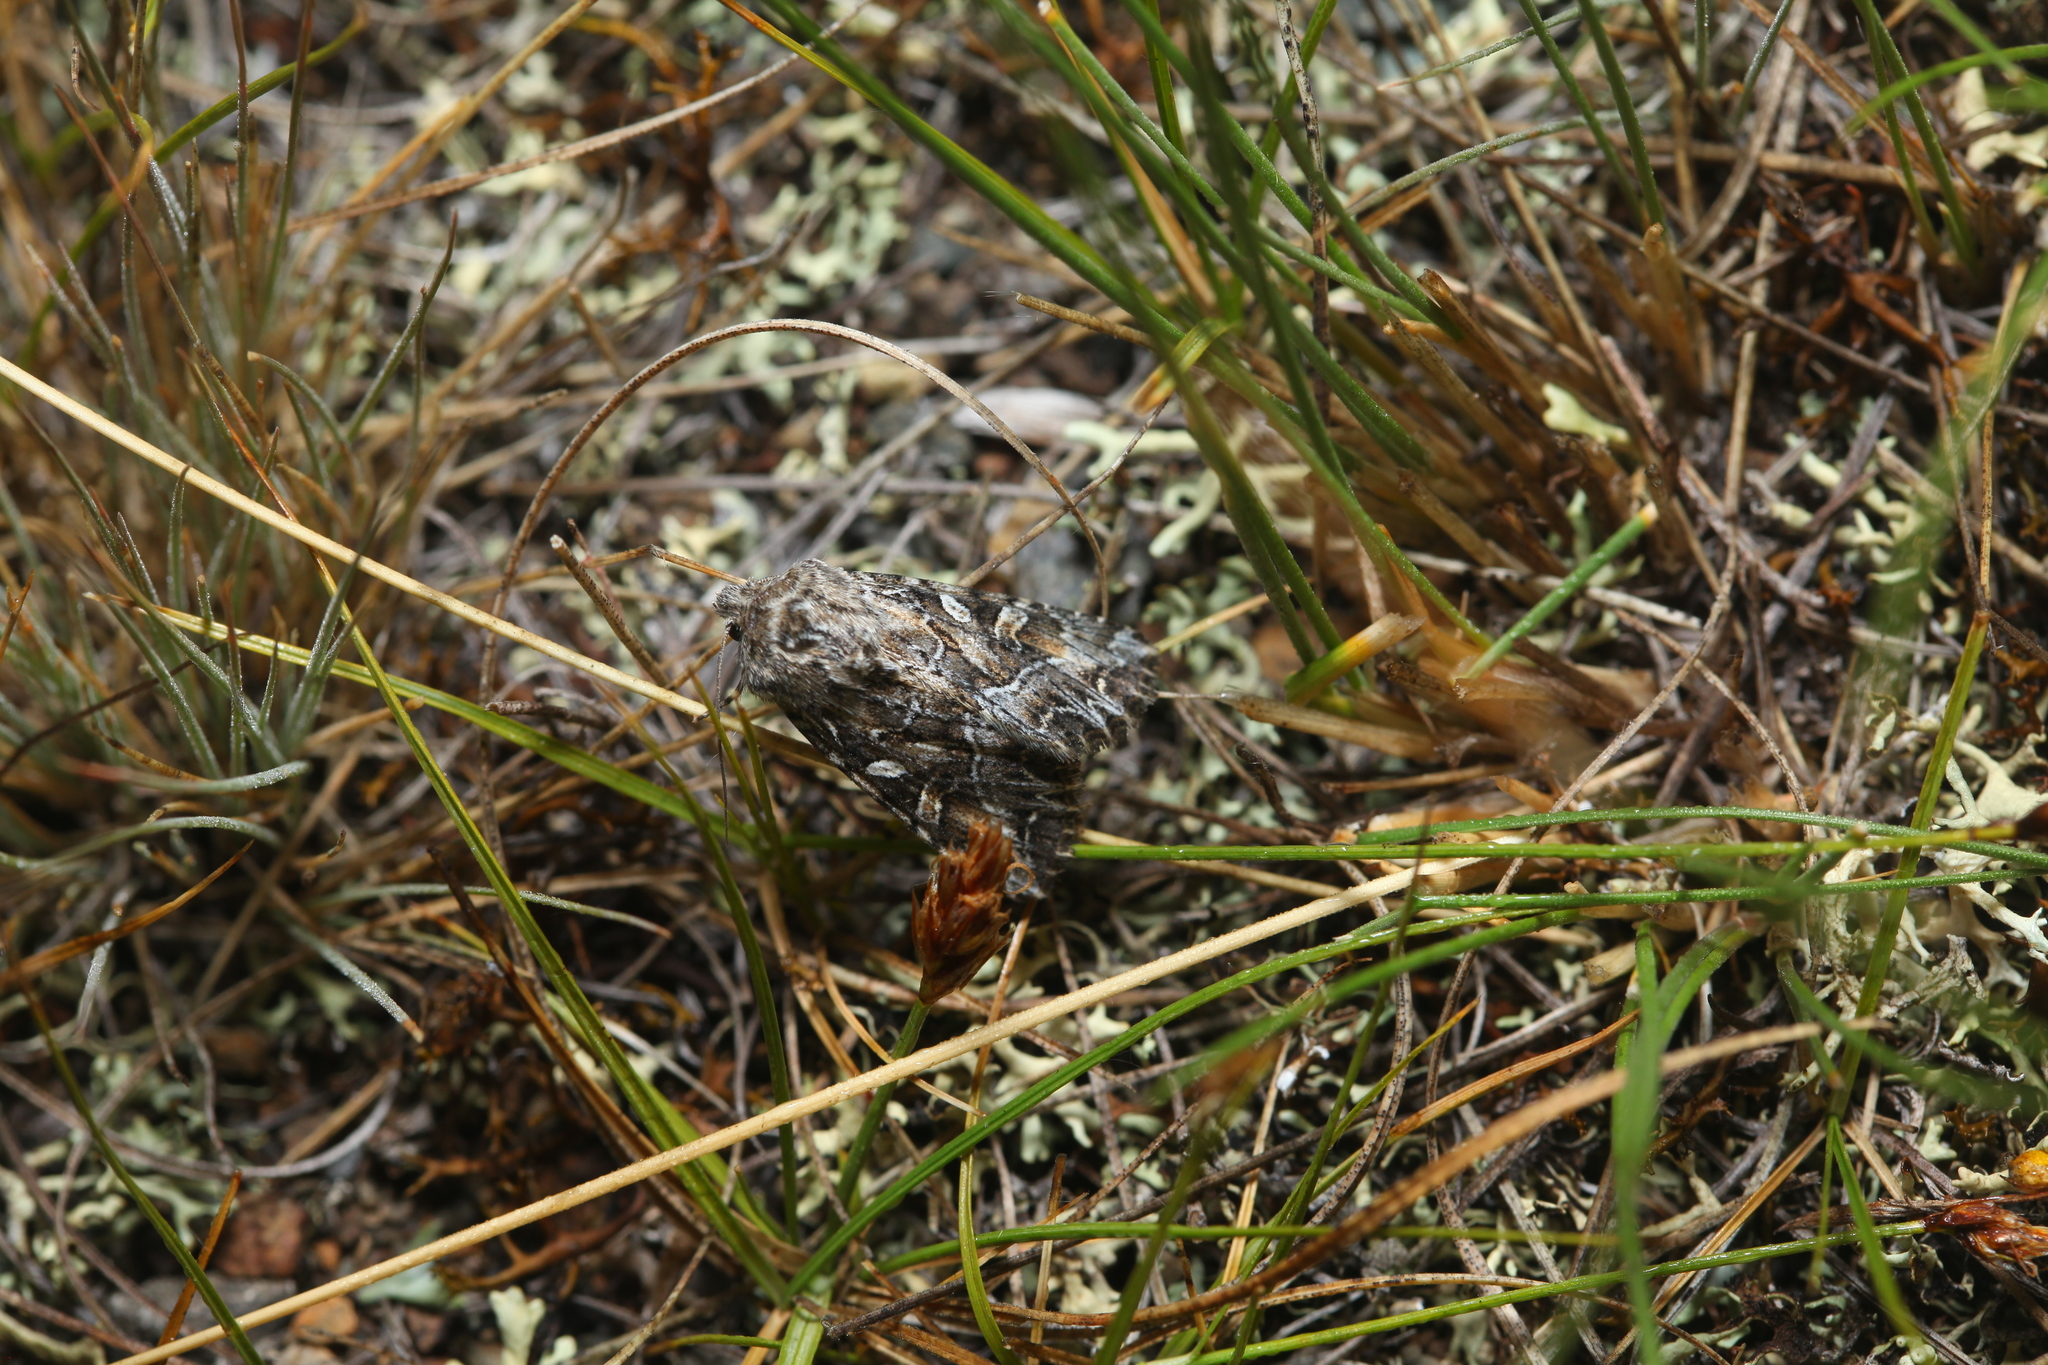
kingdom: Animalia
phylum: Arthropoda
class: Insecta
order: Lepidoptera
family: Noctuidae
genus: Apamea
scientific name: Apamea leucodon
